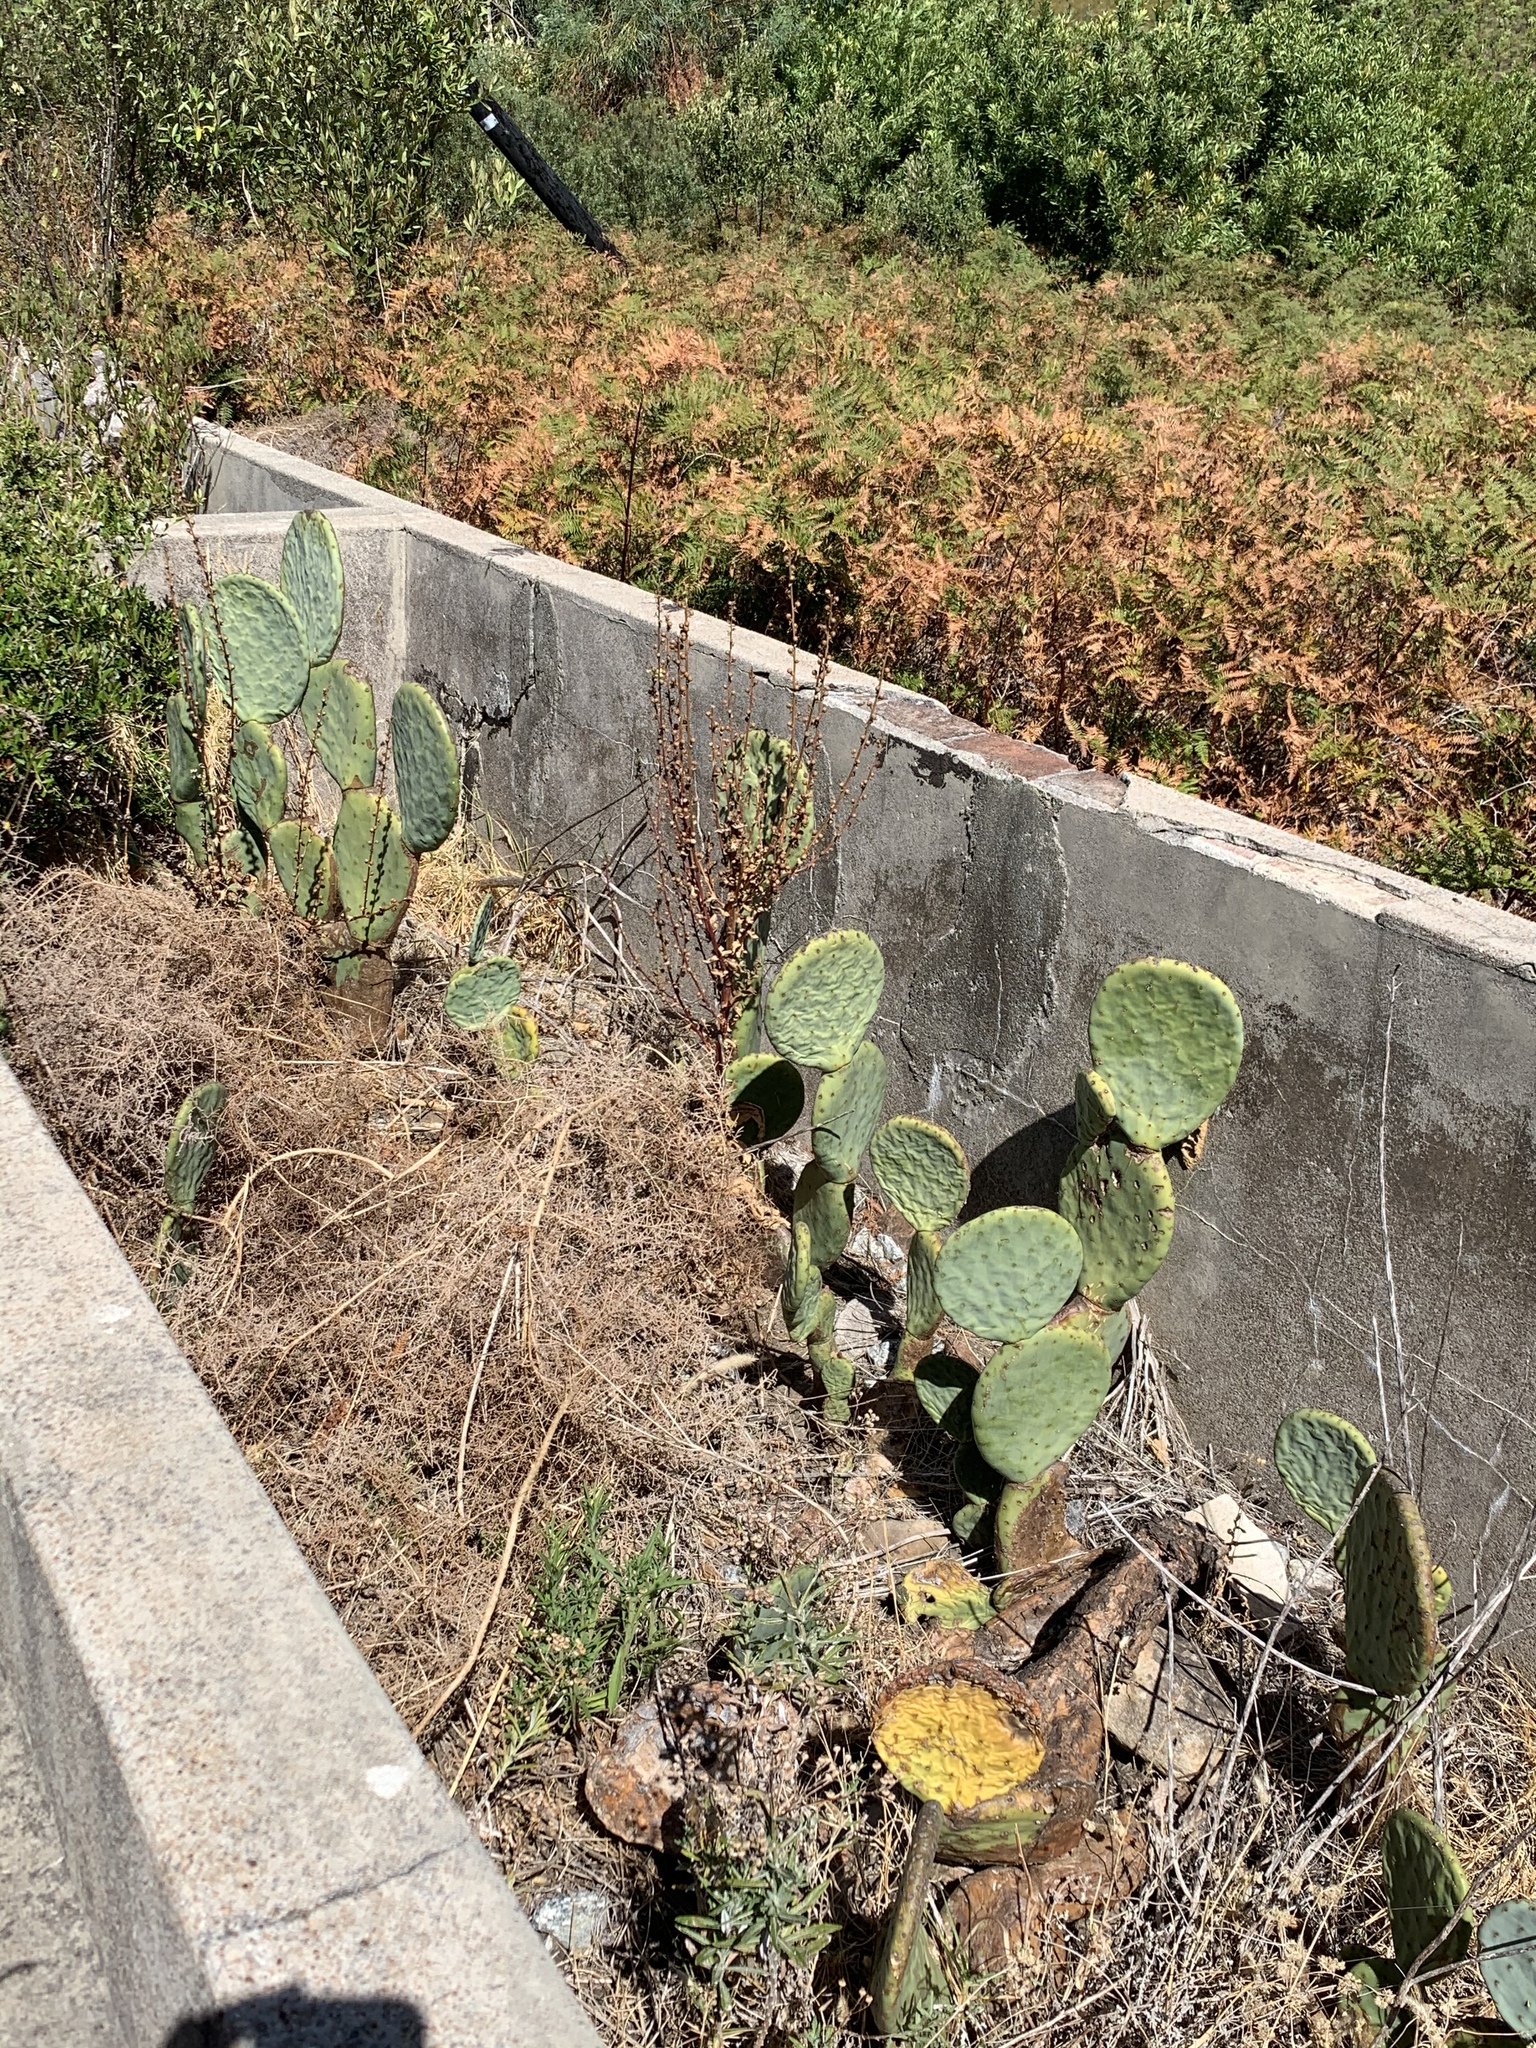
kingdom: Plantae
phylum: Tracheophyta
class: Magnoliopsida
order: Caryophyllales
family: Cactaceae
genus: Opuntia
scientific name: Opuntia robusta
